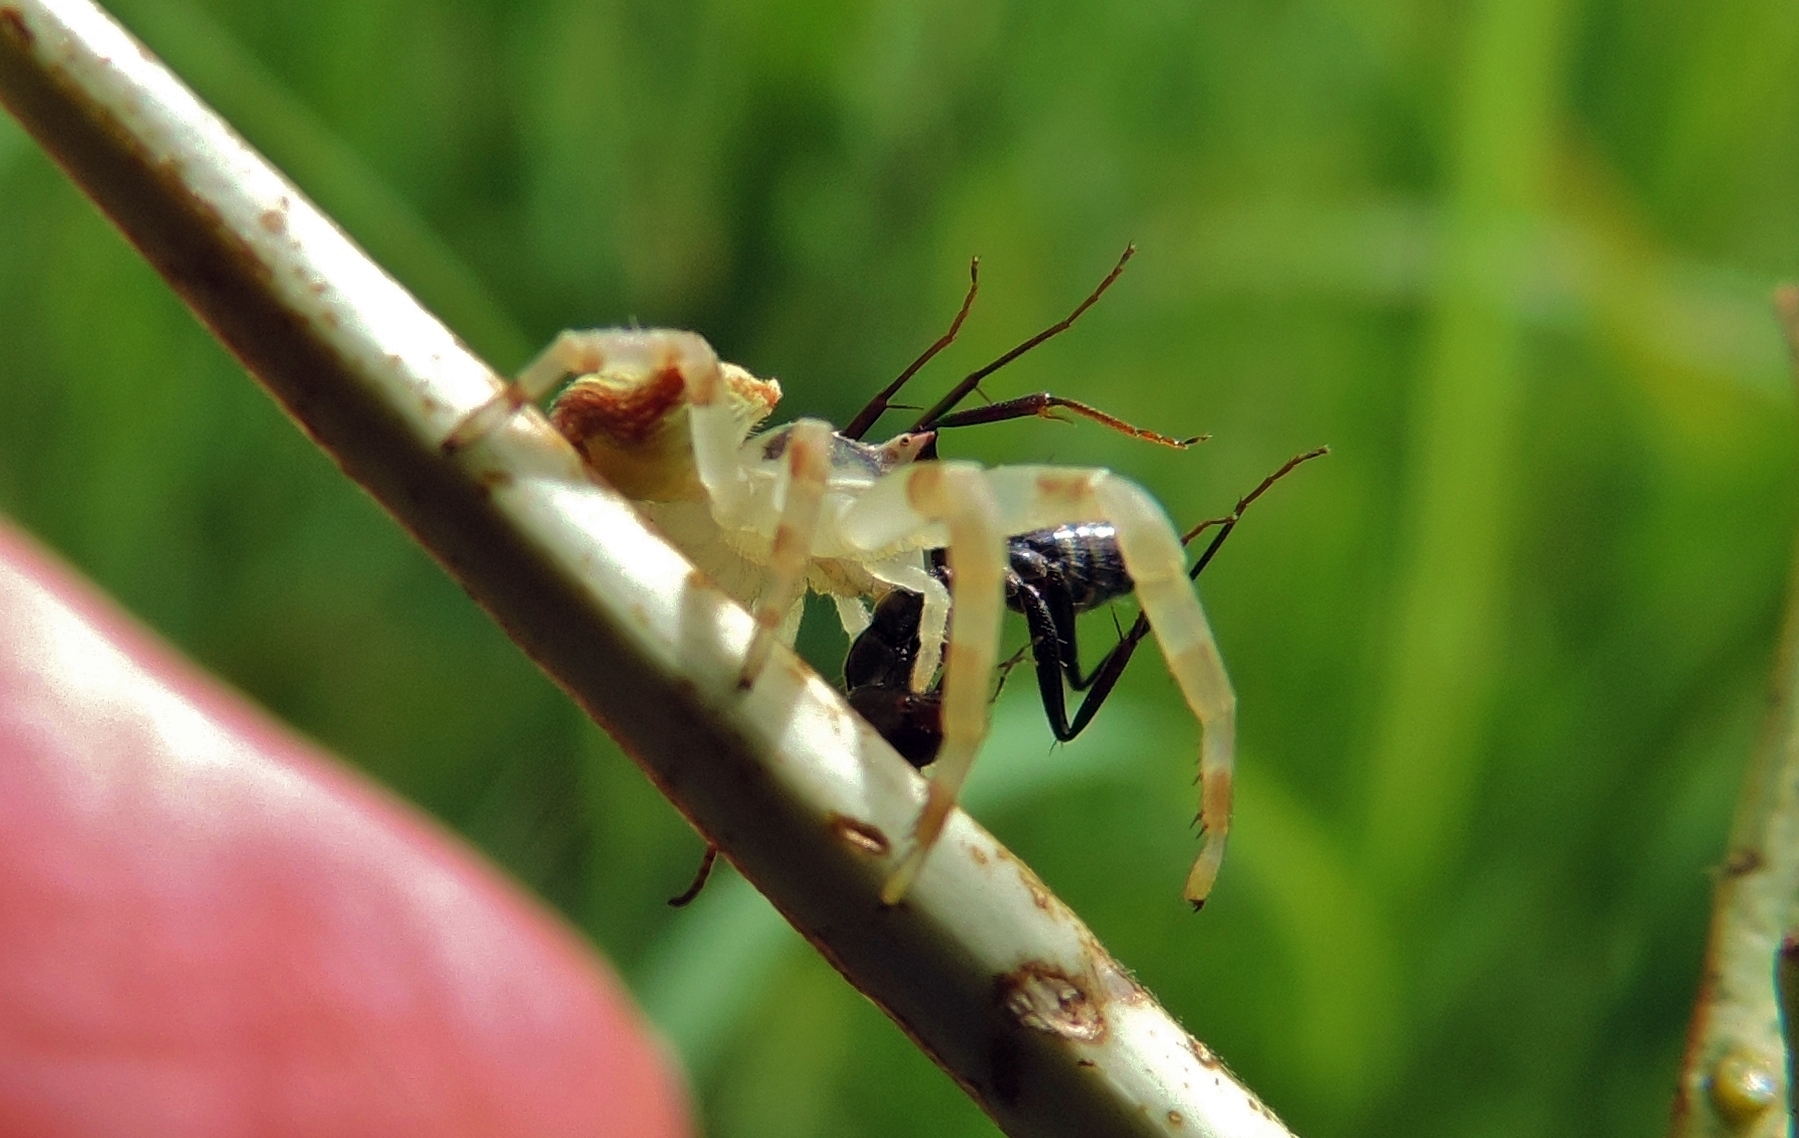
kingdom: Animalia
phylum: Arthropoda
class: Arachnida
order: Araneae
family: Thomisidae
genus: Thomisus
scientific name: Thomisus blandus
